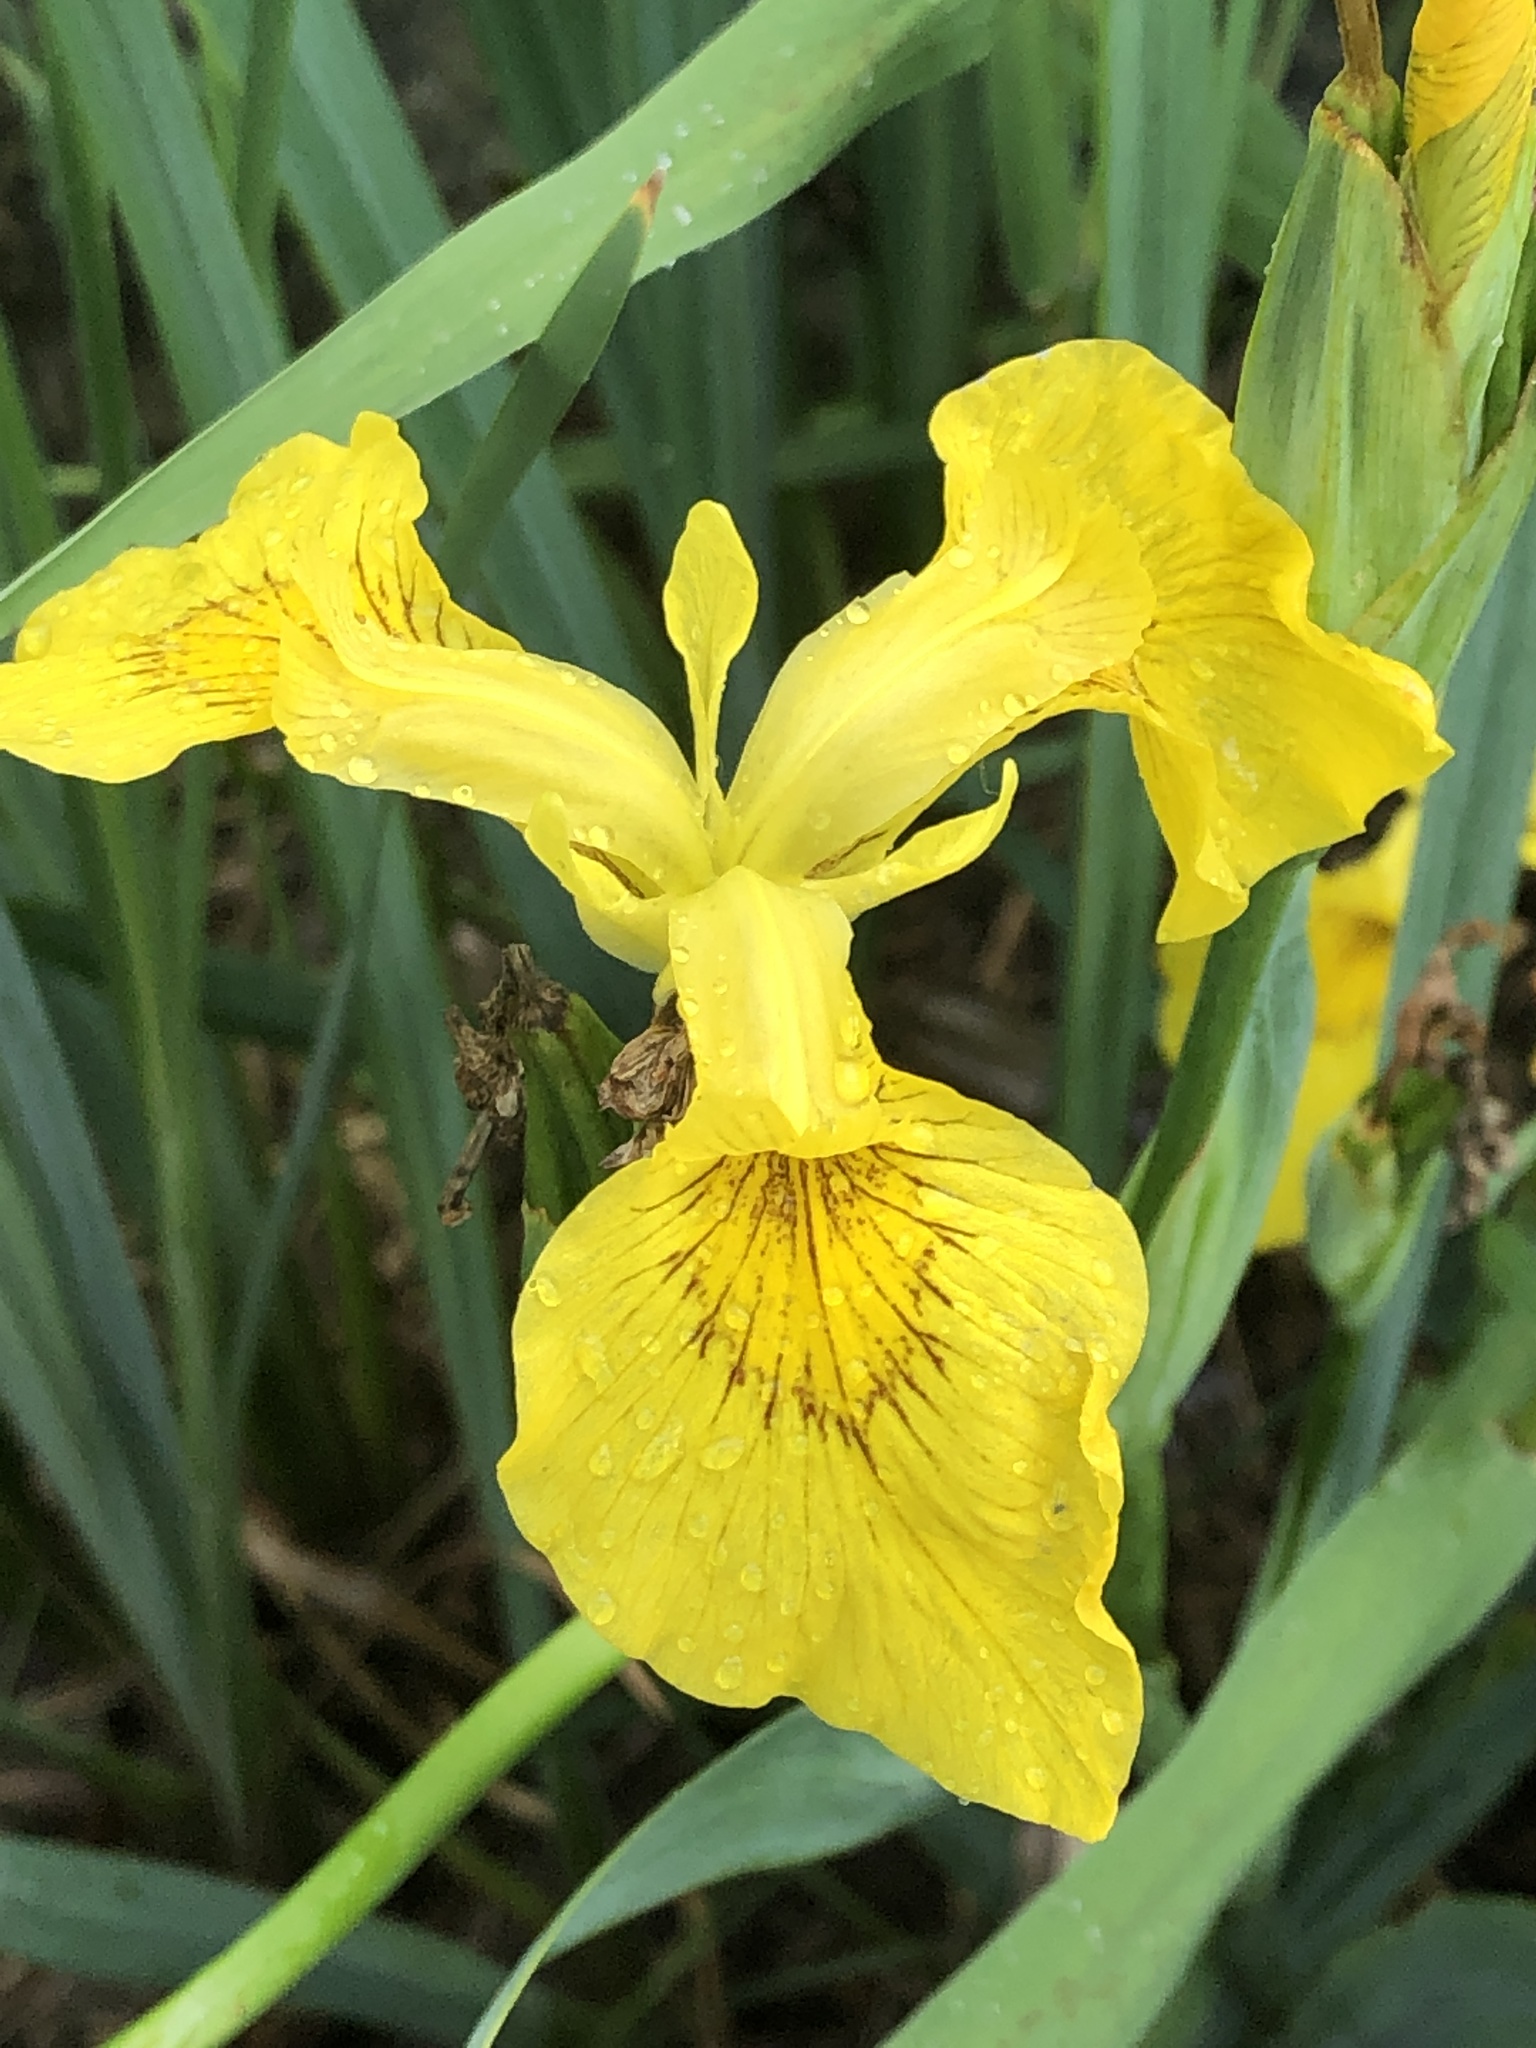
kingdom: Plantae
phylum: Tracheophyta
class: Liliopsida
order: Asparagales
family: Iridaceae
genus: Iris
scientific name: Iris pseudacorus
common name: Yellow flag
